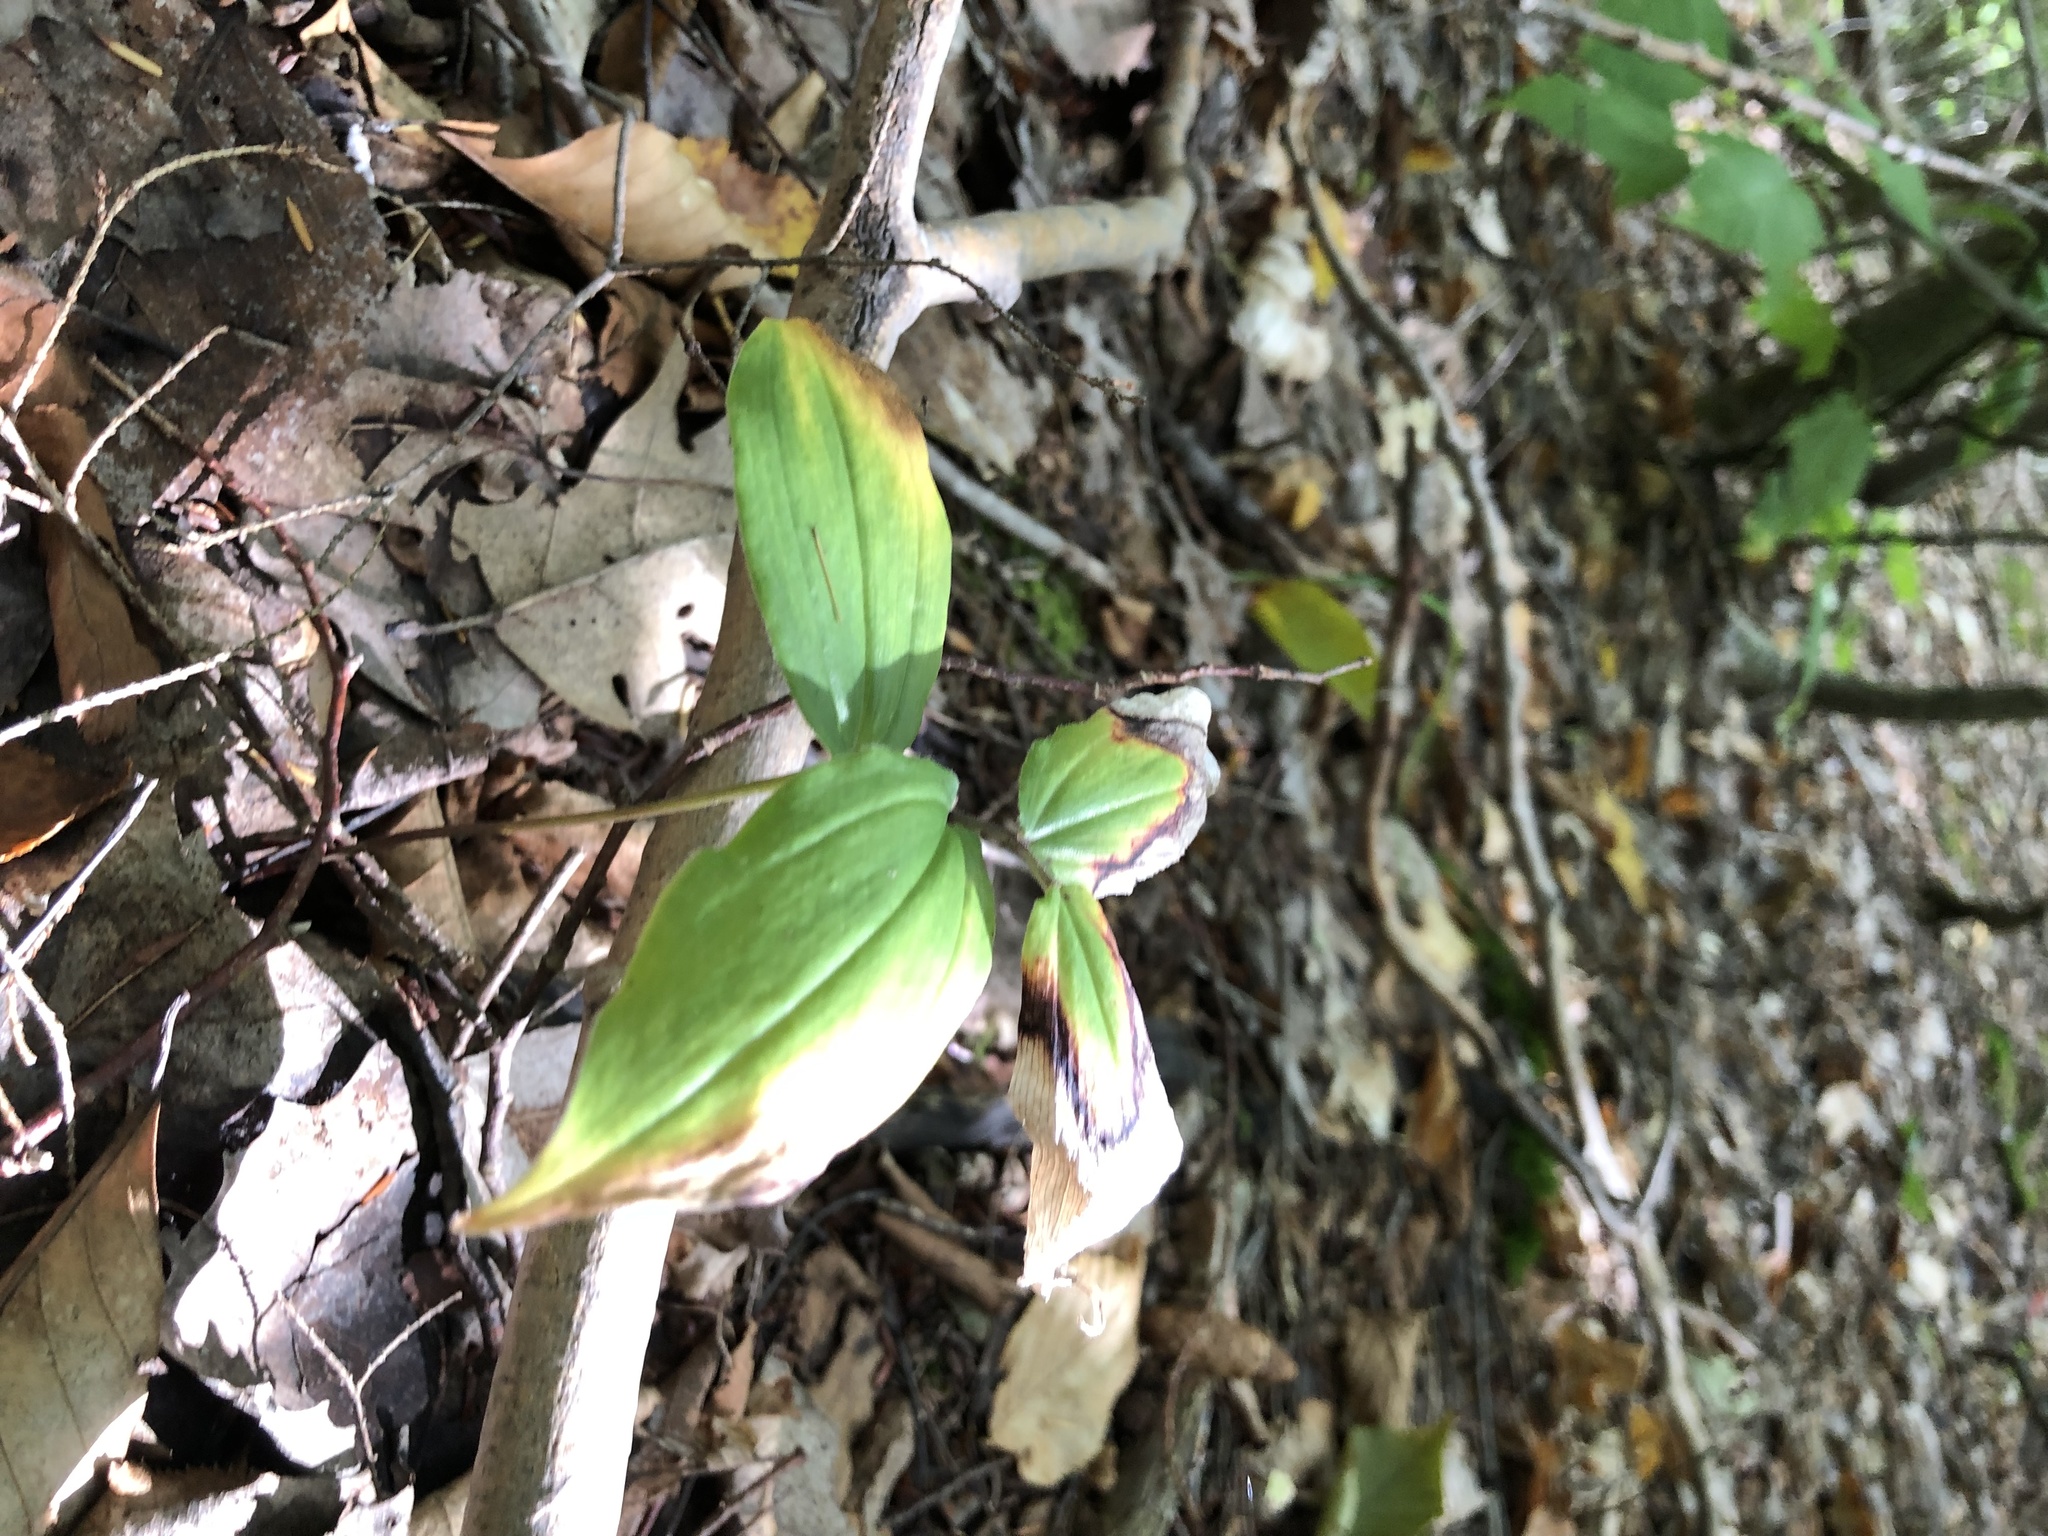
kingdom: Plantae
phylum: Tracheophyta
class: Liliopsida
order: Asparagales
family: Asparagaceae
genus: Maianthemum
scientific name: Maianthemum racemosum
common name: False spikenard
